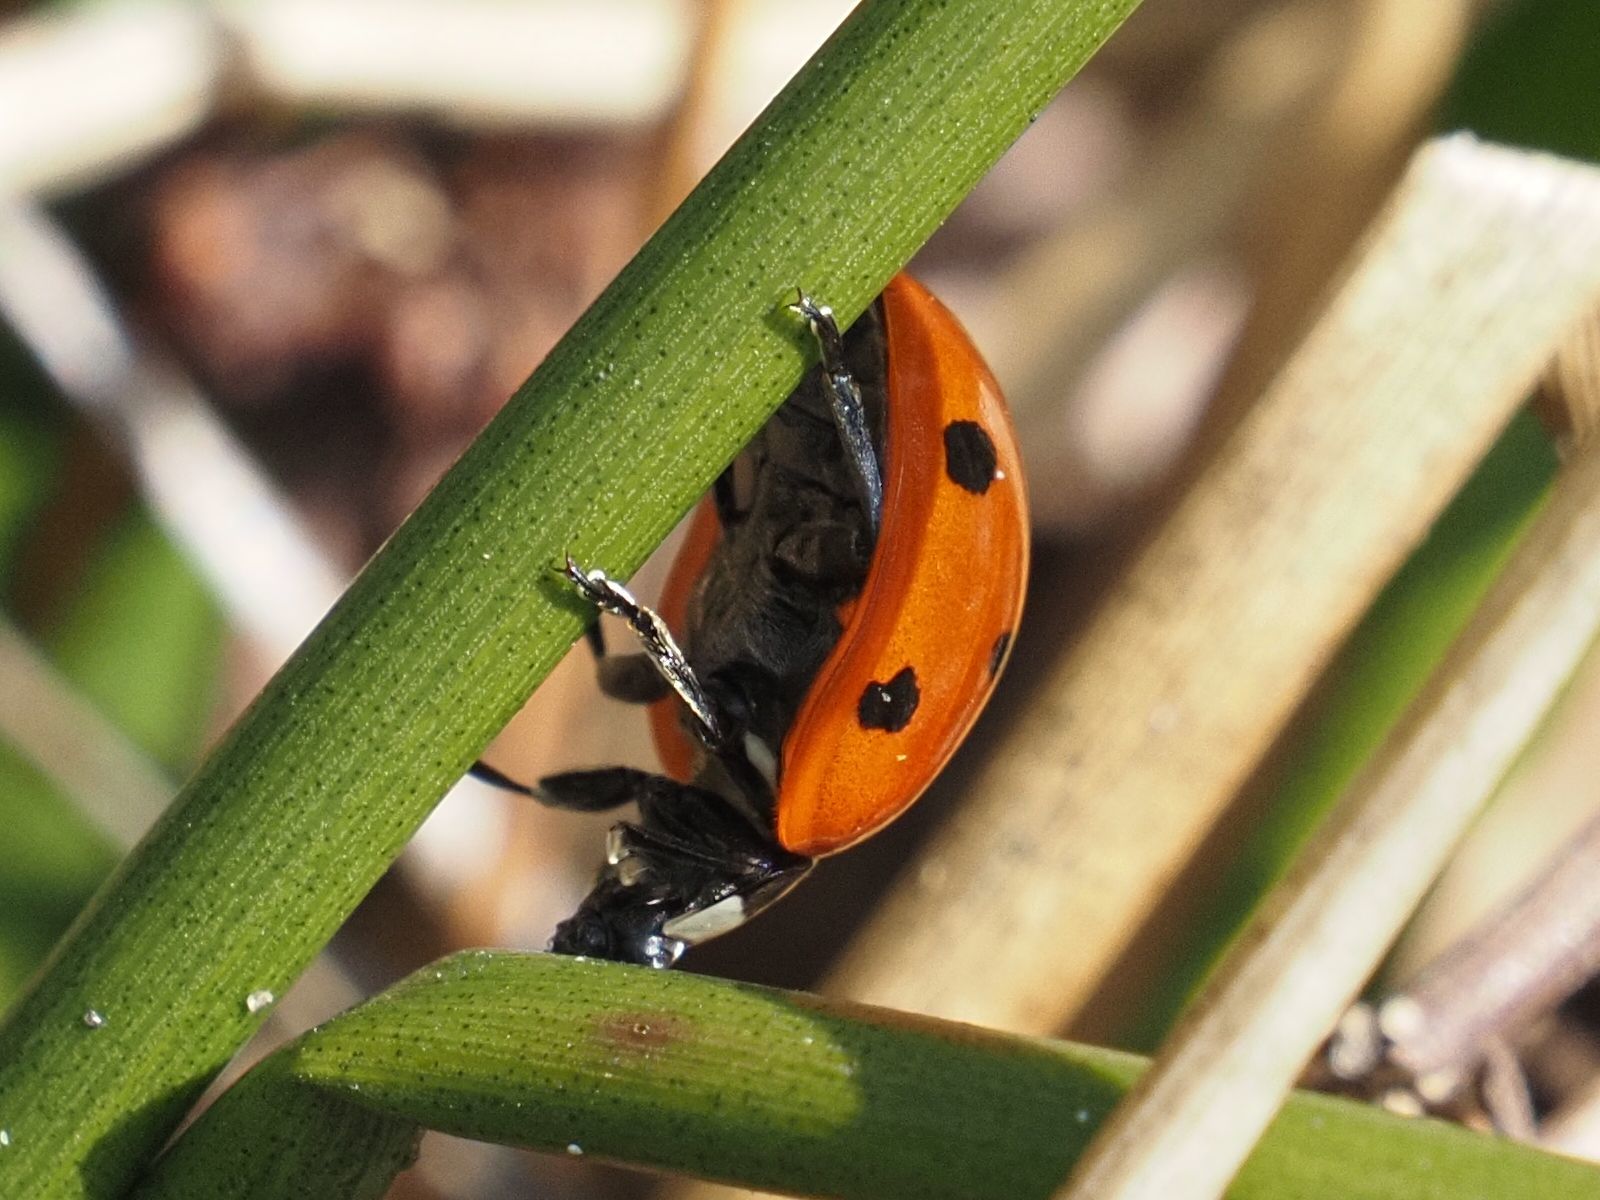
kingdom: Animalia
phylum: Arthropoda
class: Insecta
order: Coleoptera
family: Coccinellidae
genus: Coccinella
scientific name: Coccinella septempunctata
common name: Sevenspotted lady beetle
